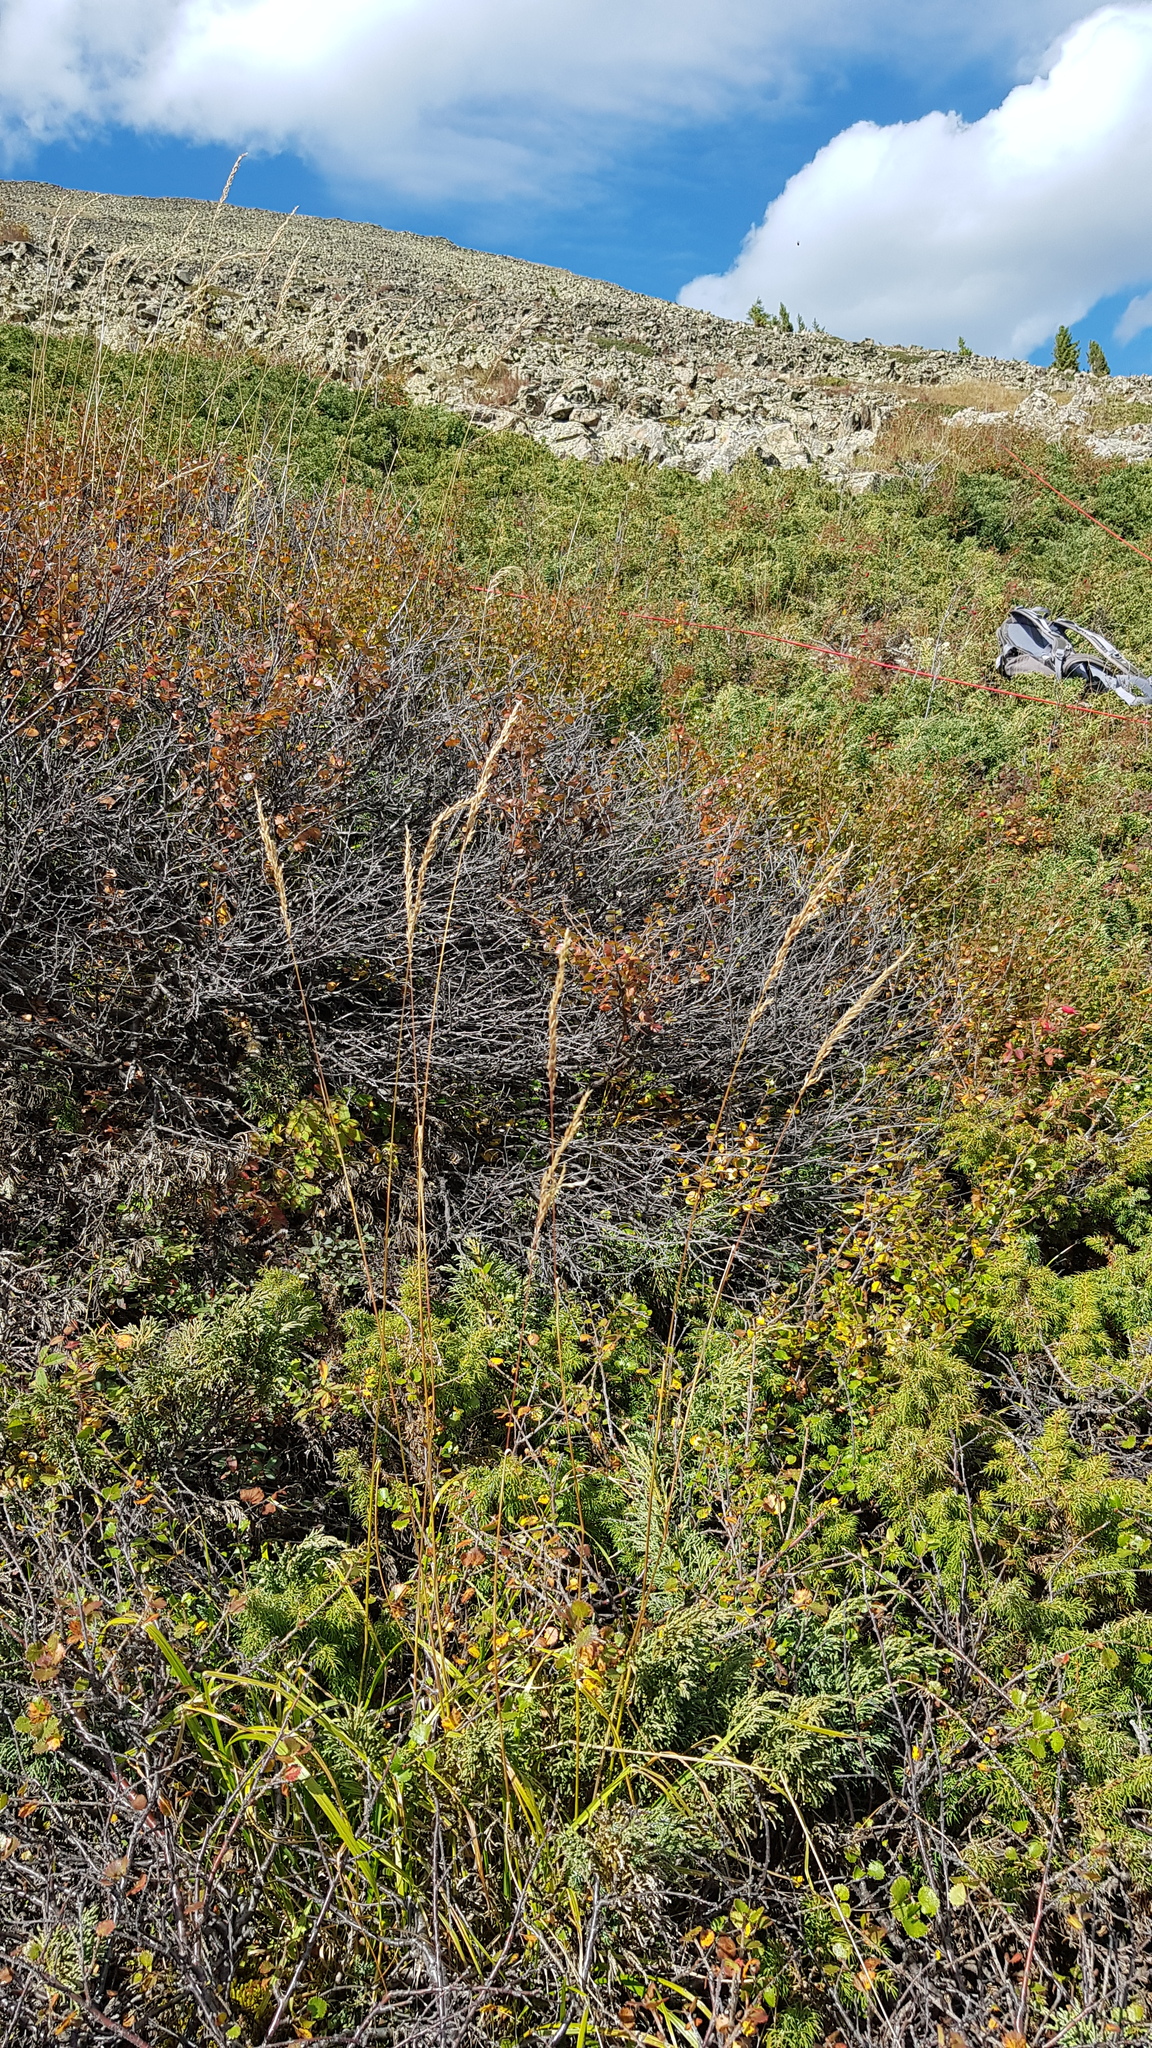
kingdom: Plantae
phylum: Tracheophyta
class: Liliopsida
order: Poales
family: Poaceae
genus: Achnatherum
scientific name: Achnatherum sibiricum
